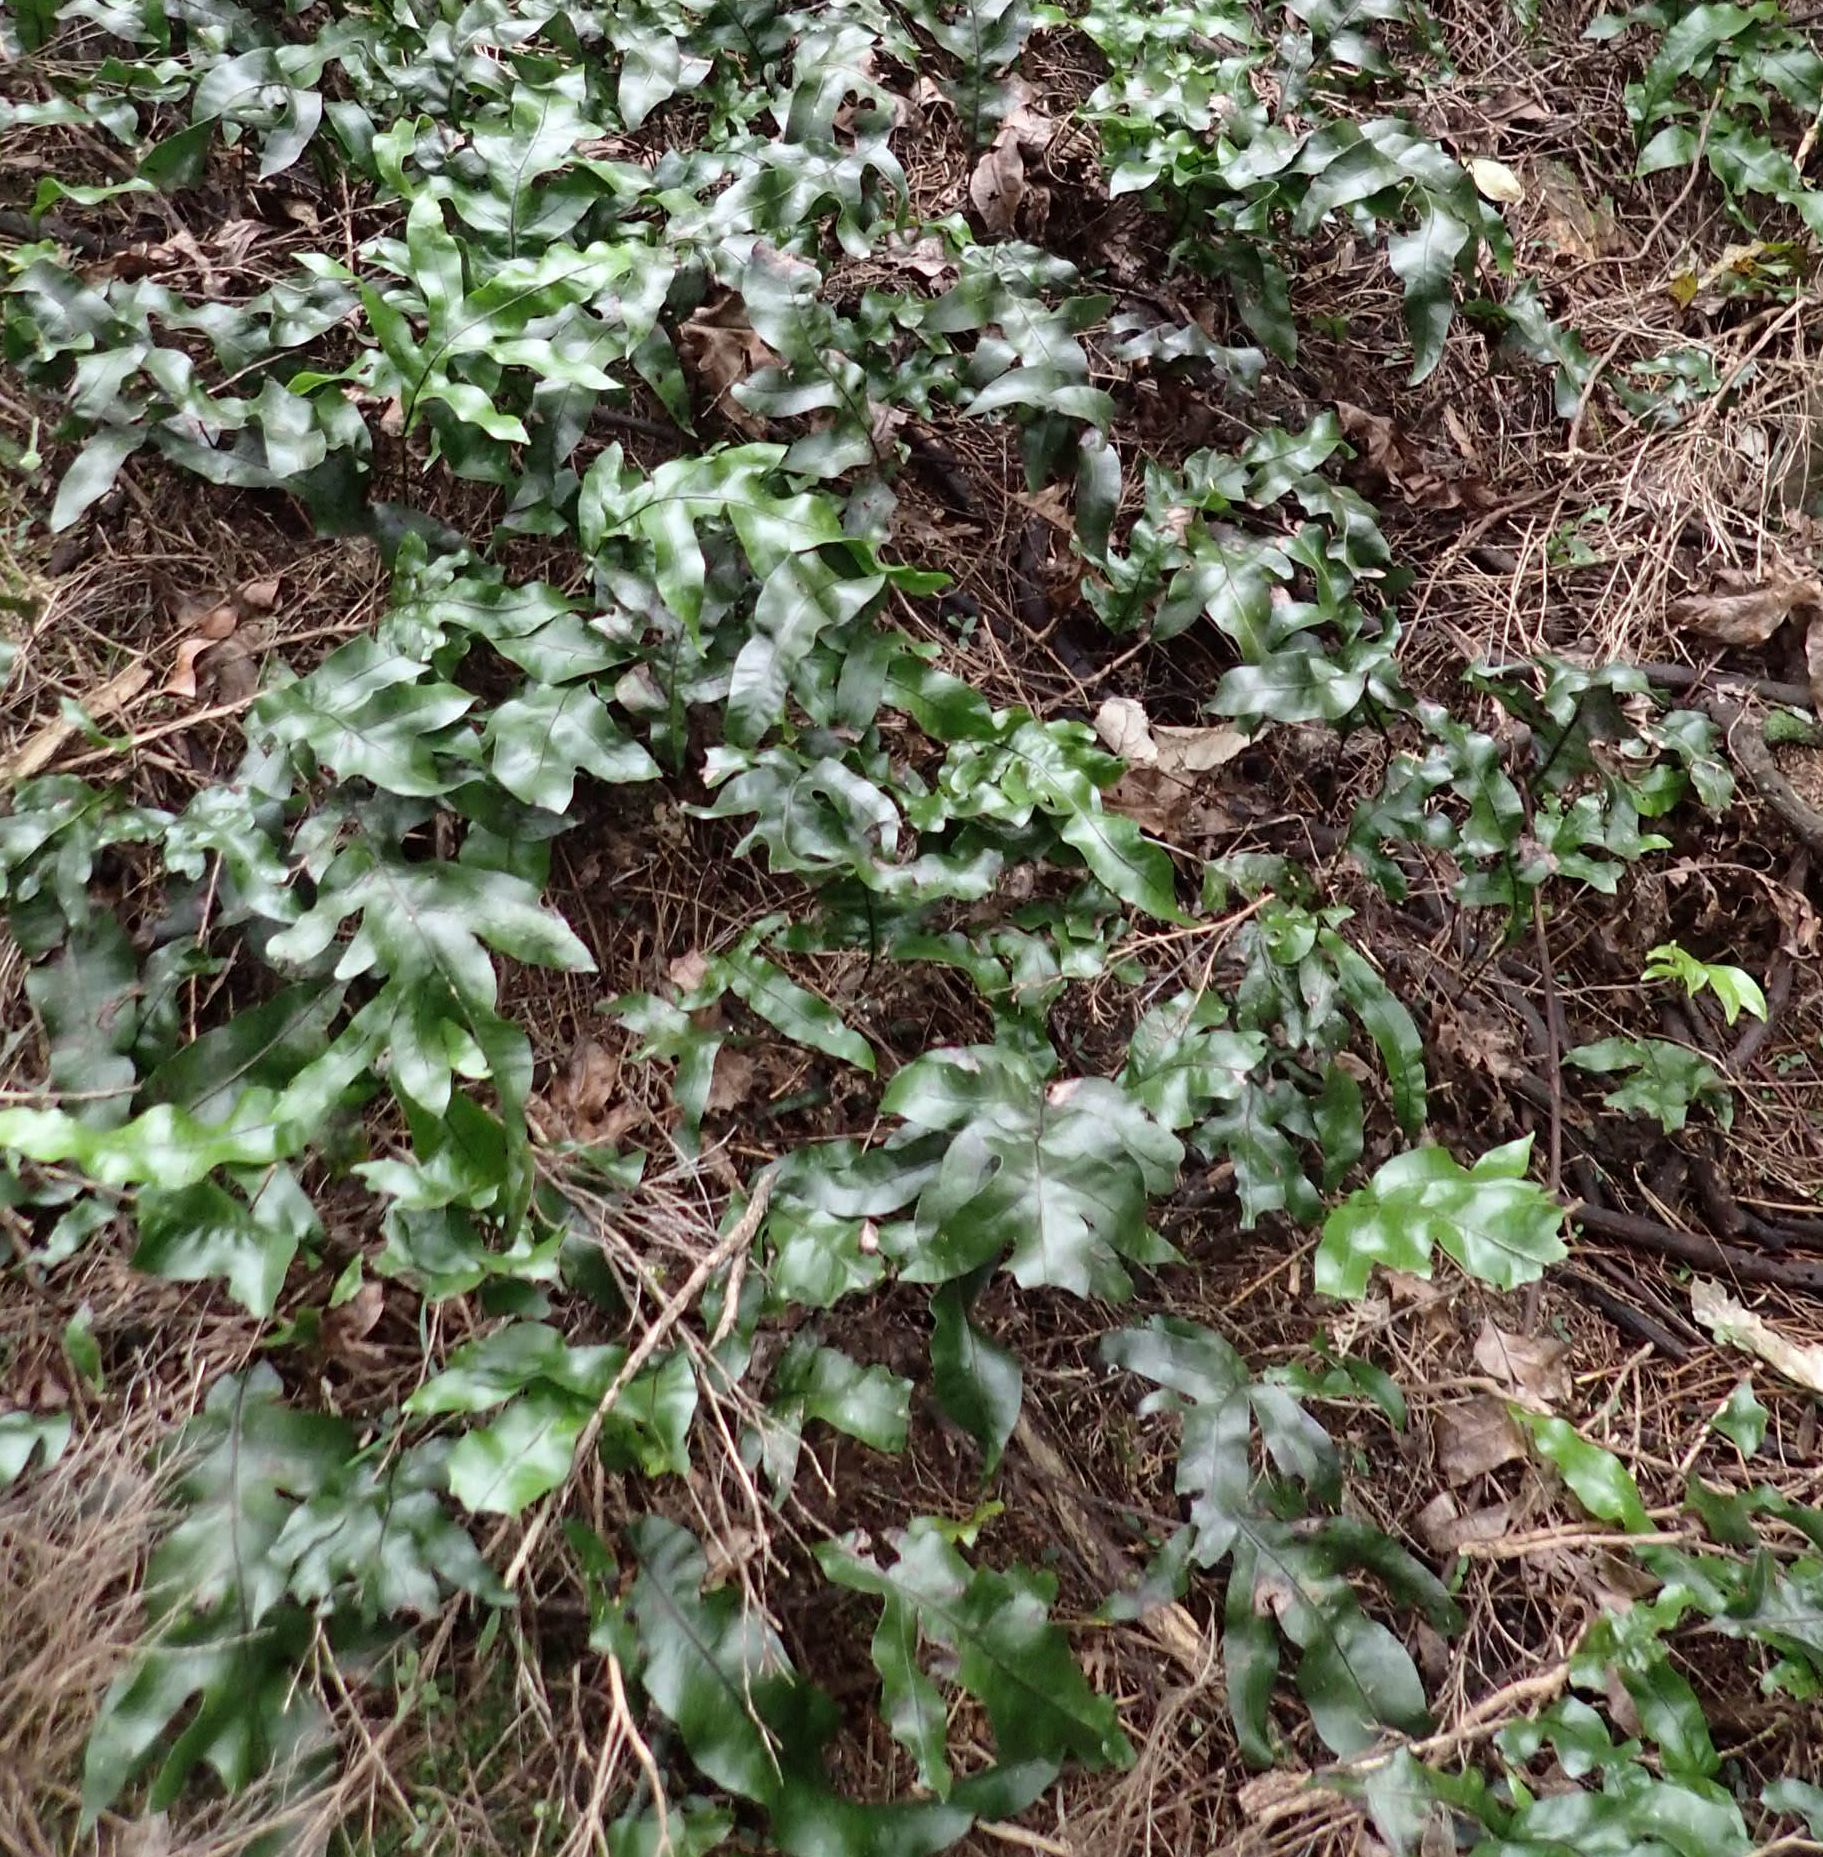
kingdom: Plantae
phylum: Tracheophyta
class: Polypodiopsida
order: Polypodiales
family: Polypodiaceae
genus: Lecanopteris
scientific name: Lecanopteris pustulata
